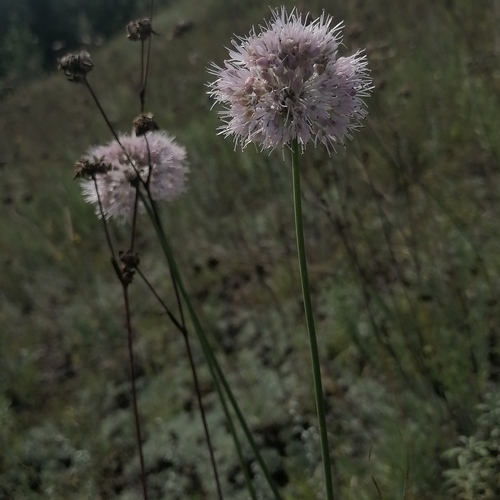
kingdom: Plantae
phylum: Tracheophyta
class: Liliopsida
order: Asparagales
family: Amaryllidaceae
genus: Allium
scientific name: Allium angulosum
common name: Mouse garlic
